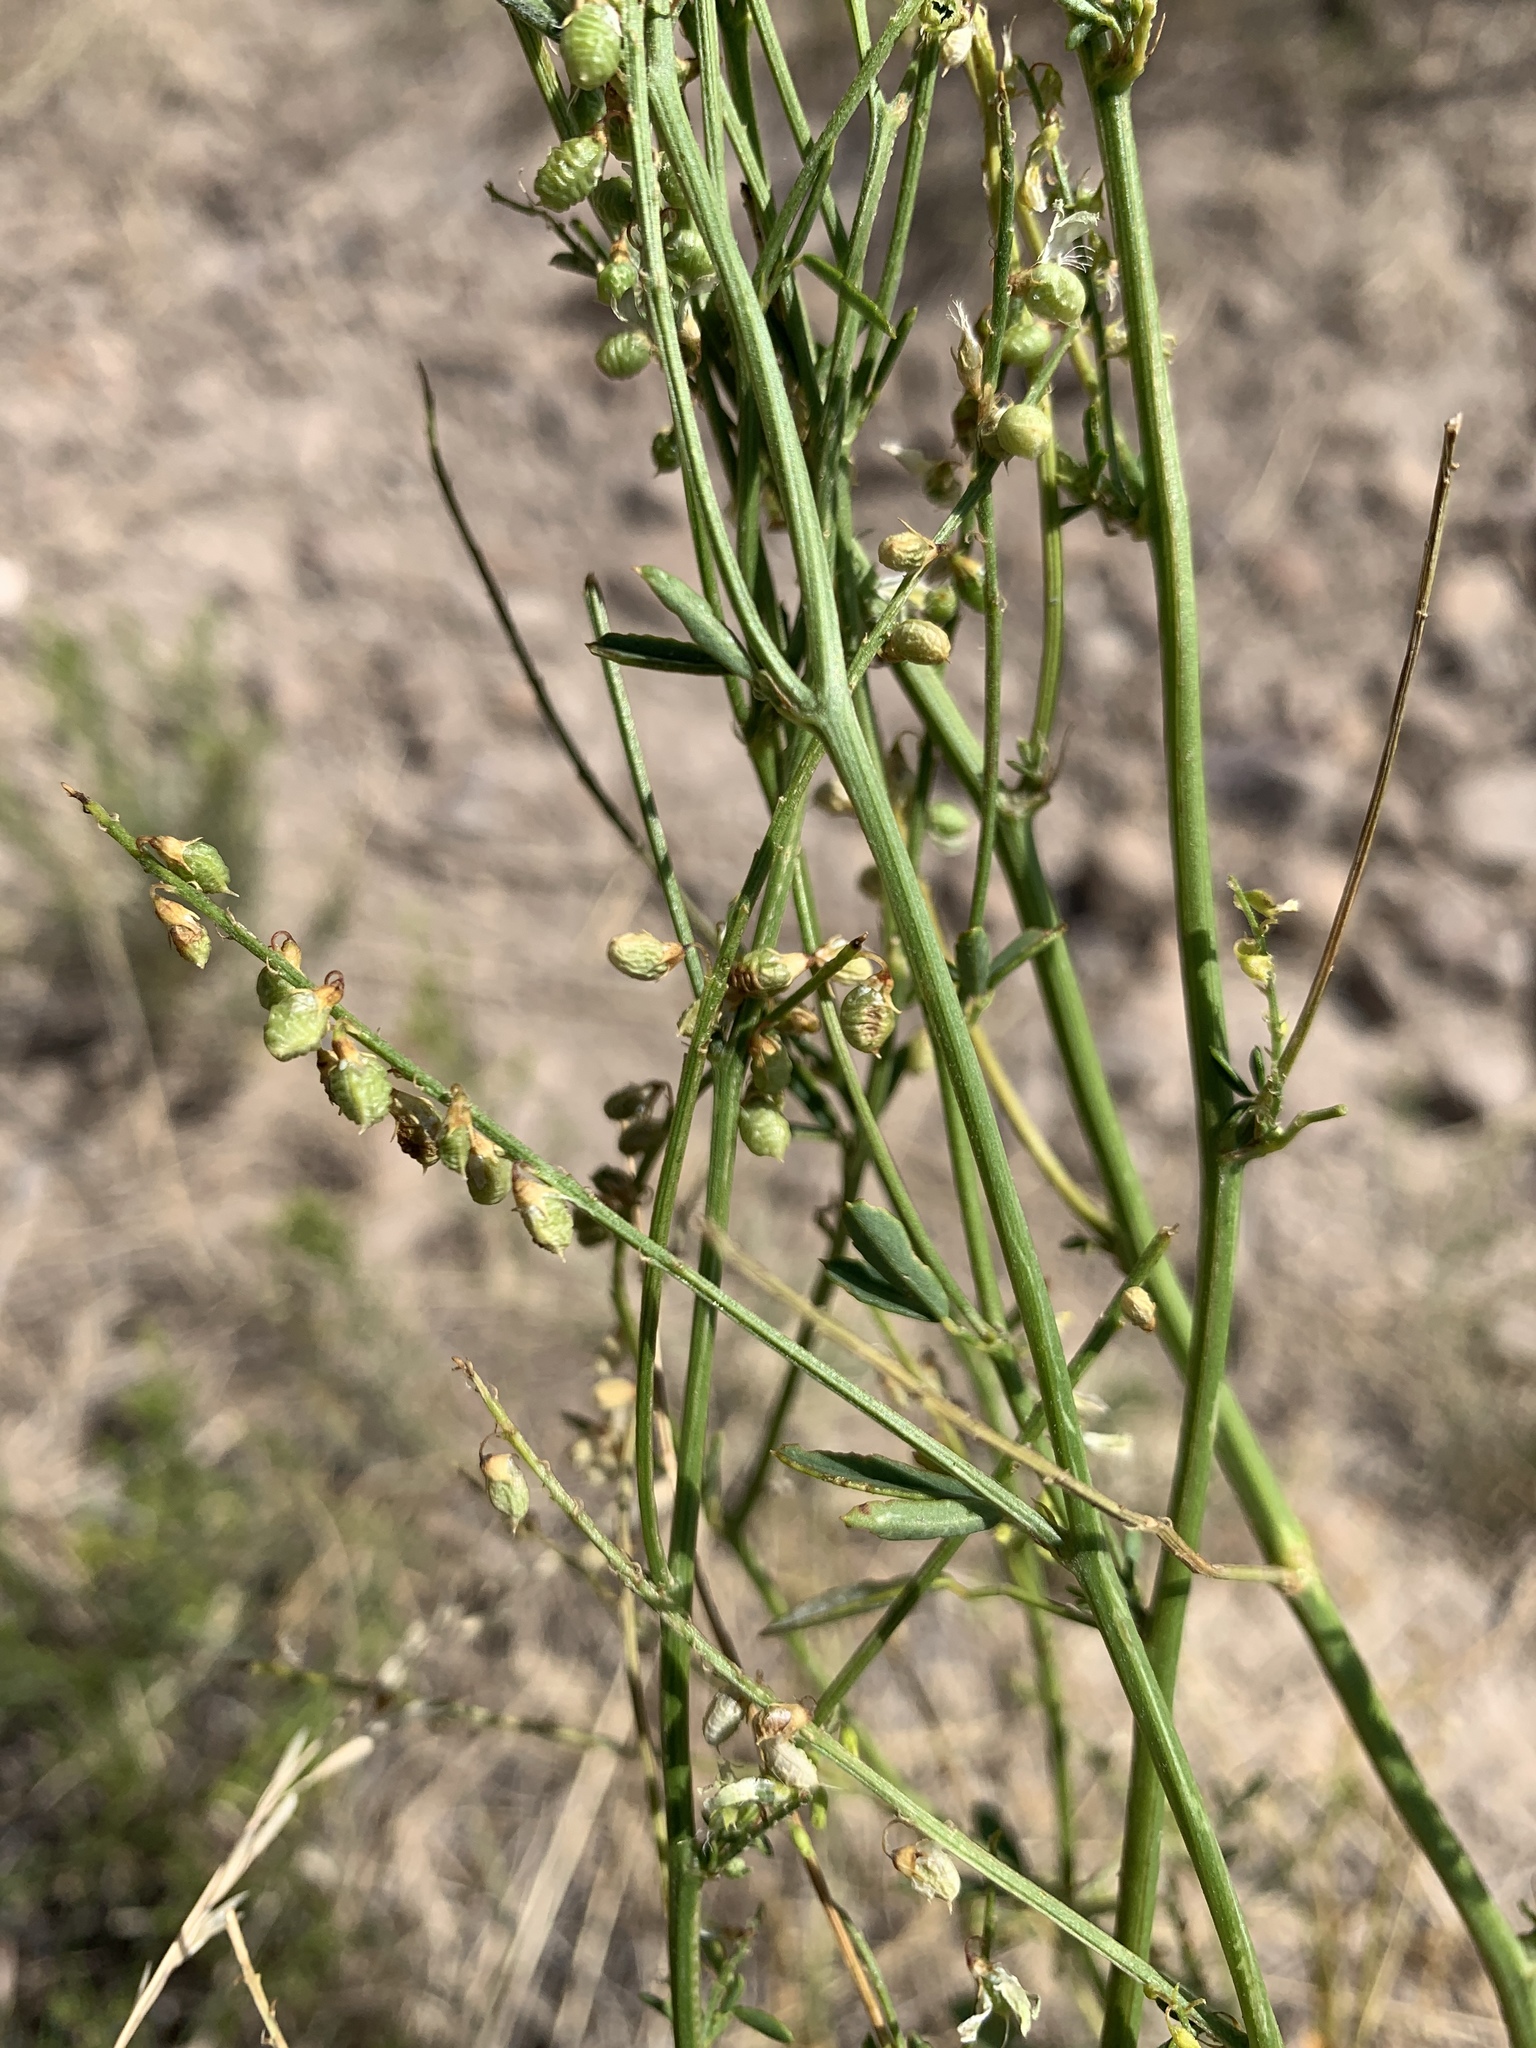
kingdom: Plantae
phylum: Tracheophyta
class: Magnoliopsida
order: Fabales
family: Fabaceae
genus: Melilotus
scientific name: Melilotus officinalis
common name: Sweetclover
